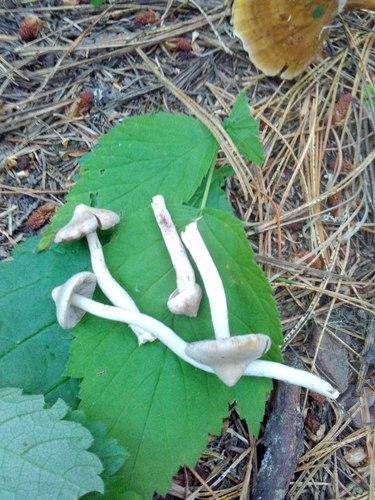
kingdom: Fungi
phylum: Basidiomycota
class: Agaricomycetes
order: Agaricales
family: Inocybaceae
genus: Inocybe
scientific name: Inocybe geophylla
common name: White fibrecap
